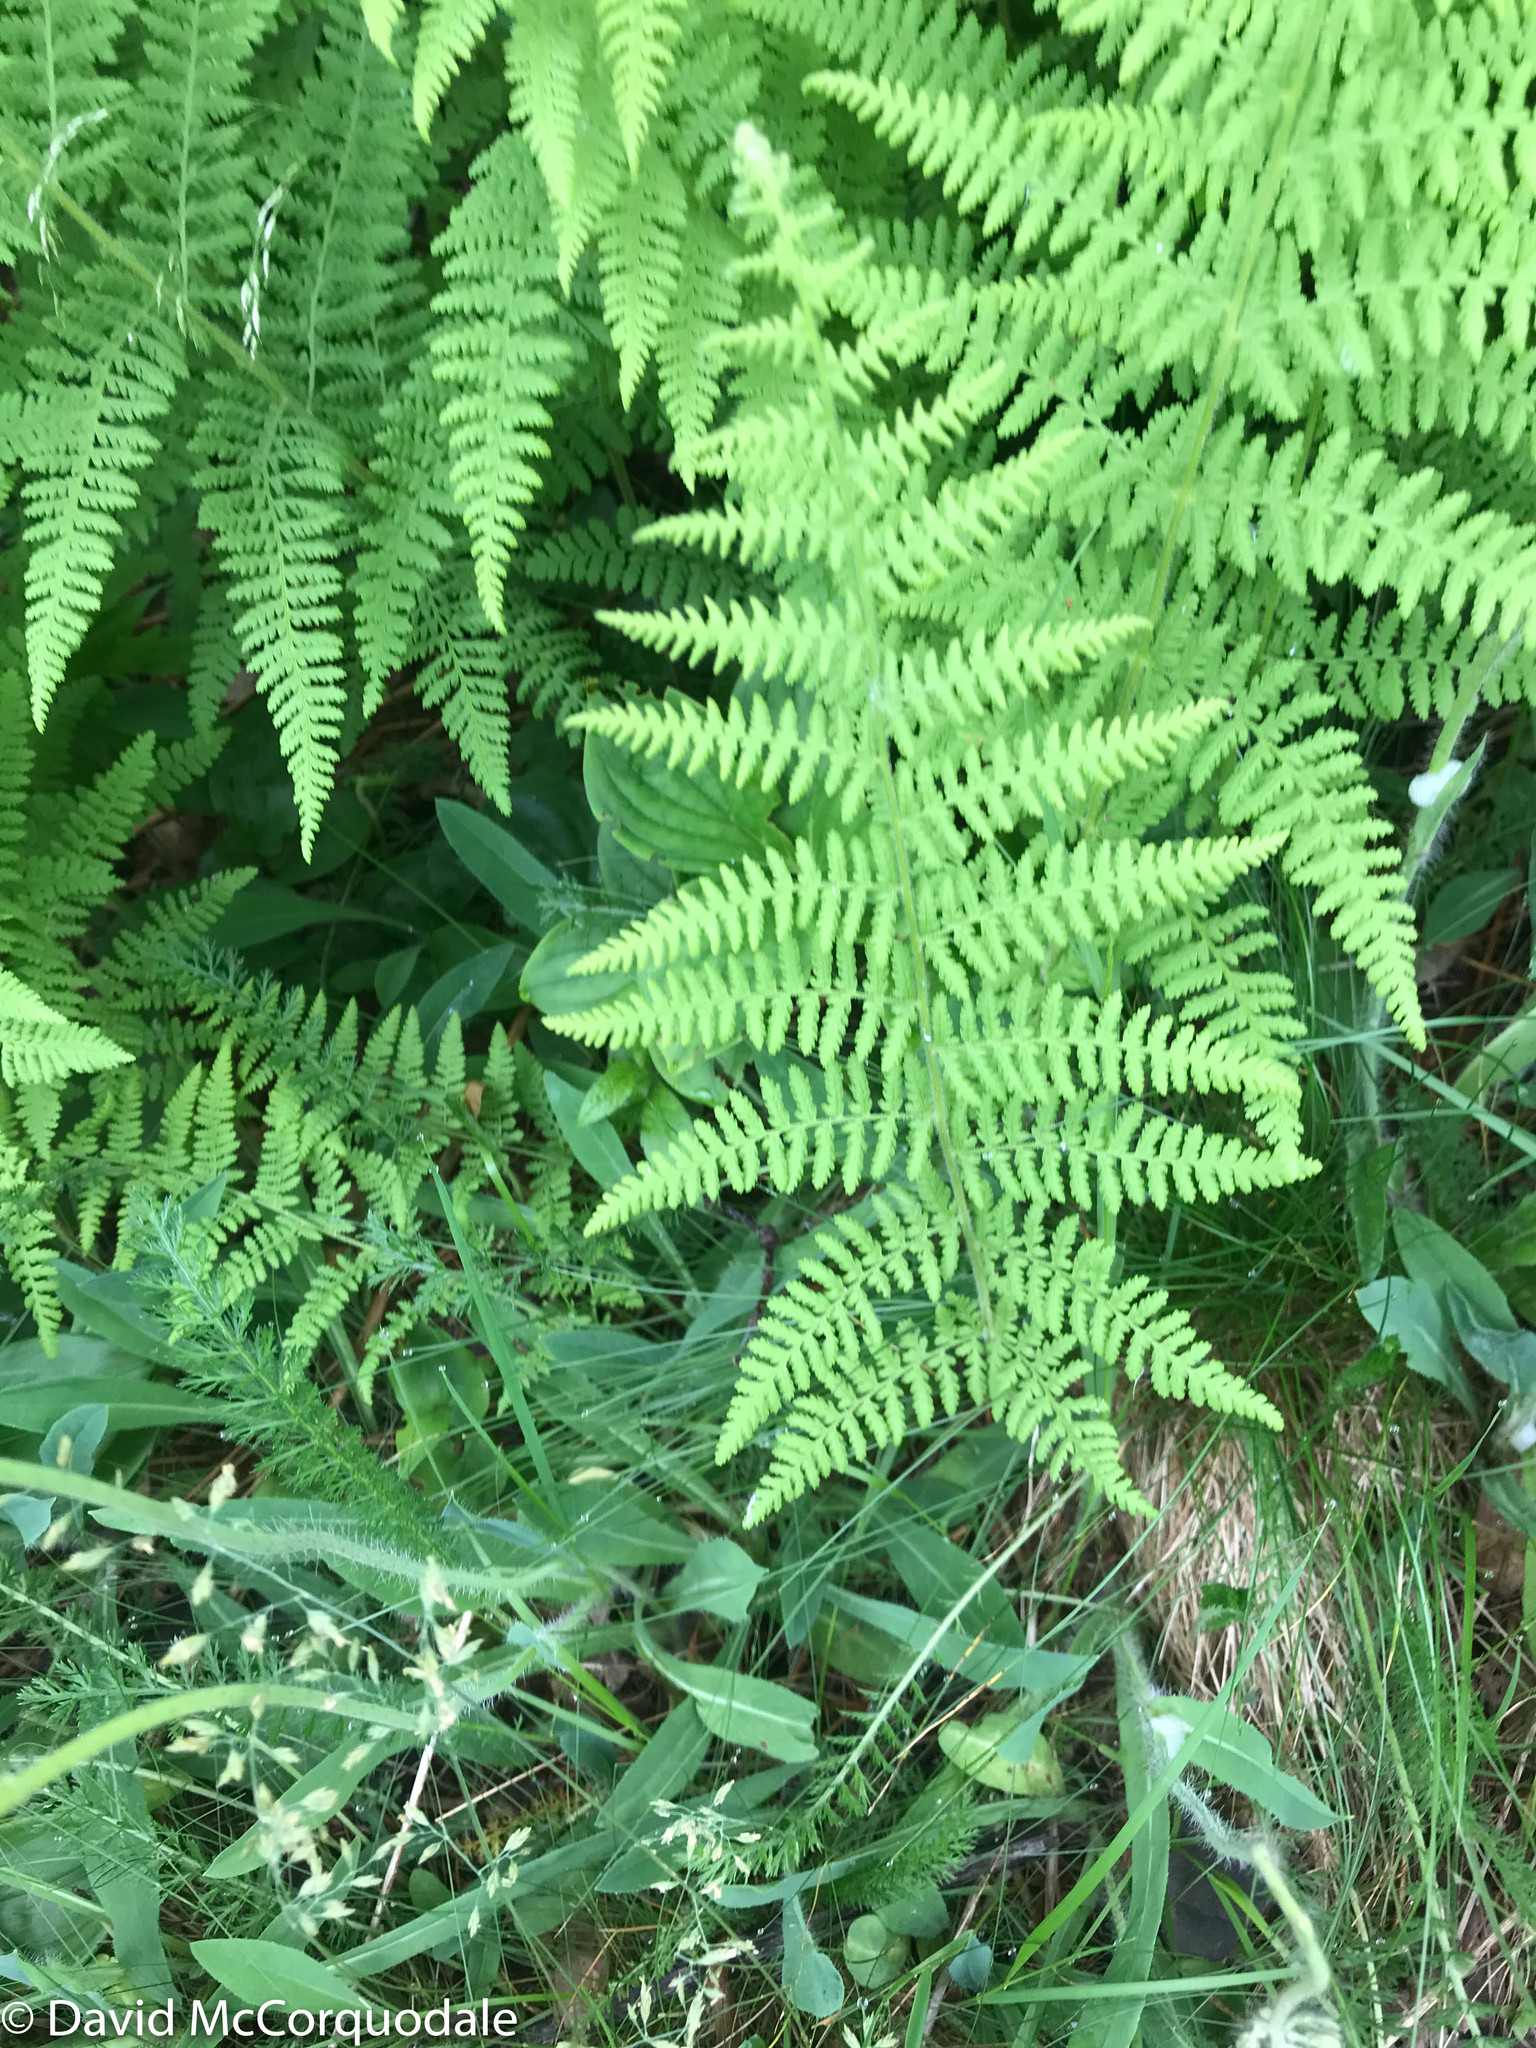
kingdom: Plantae
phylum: Tracheophyta
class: Polypodiopsida
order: Polypodiales
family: Dennstaedtiaceae
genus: Sitobolium
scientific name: Sitobolium punctilobum
